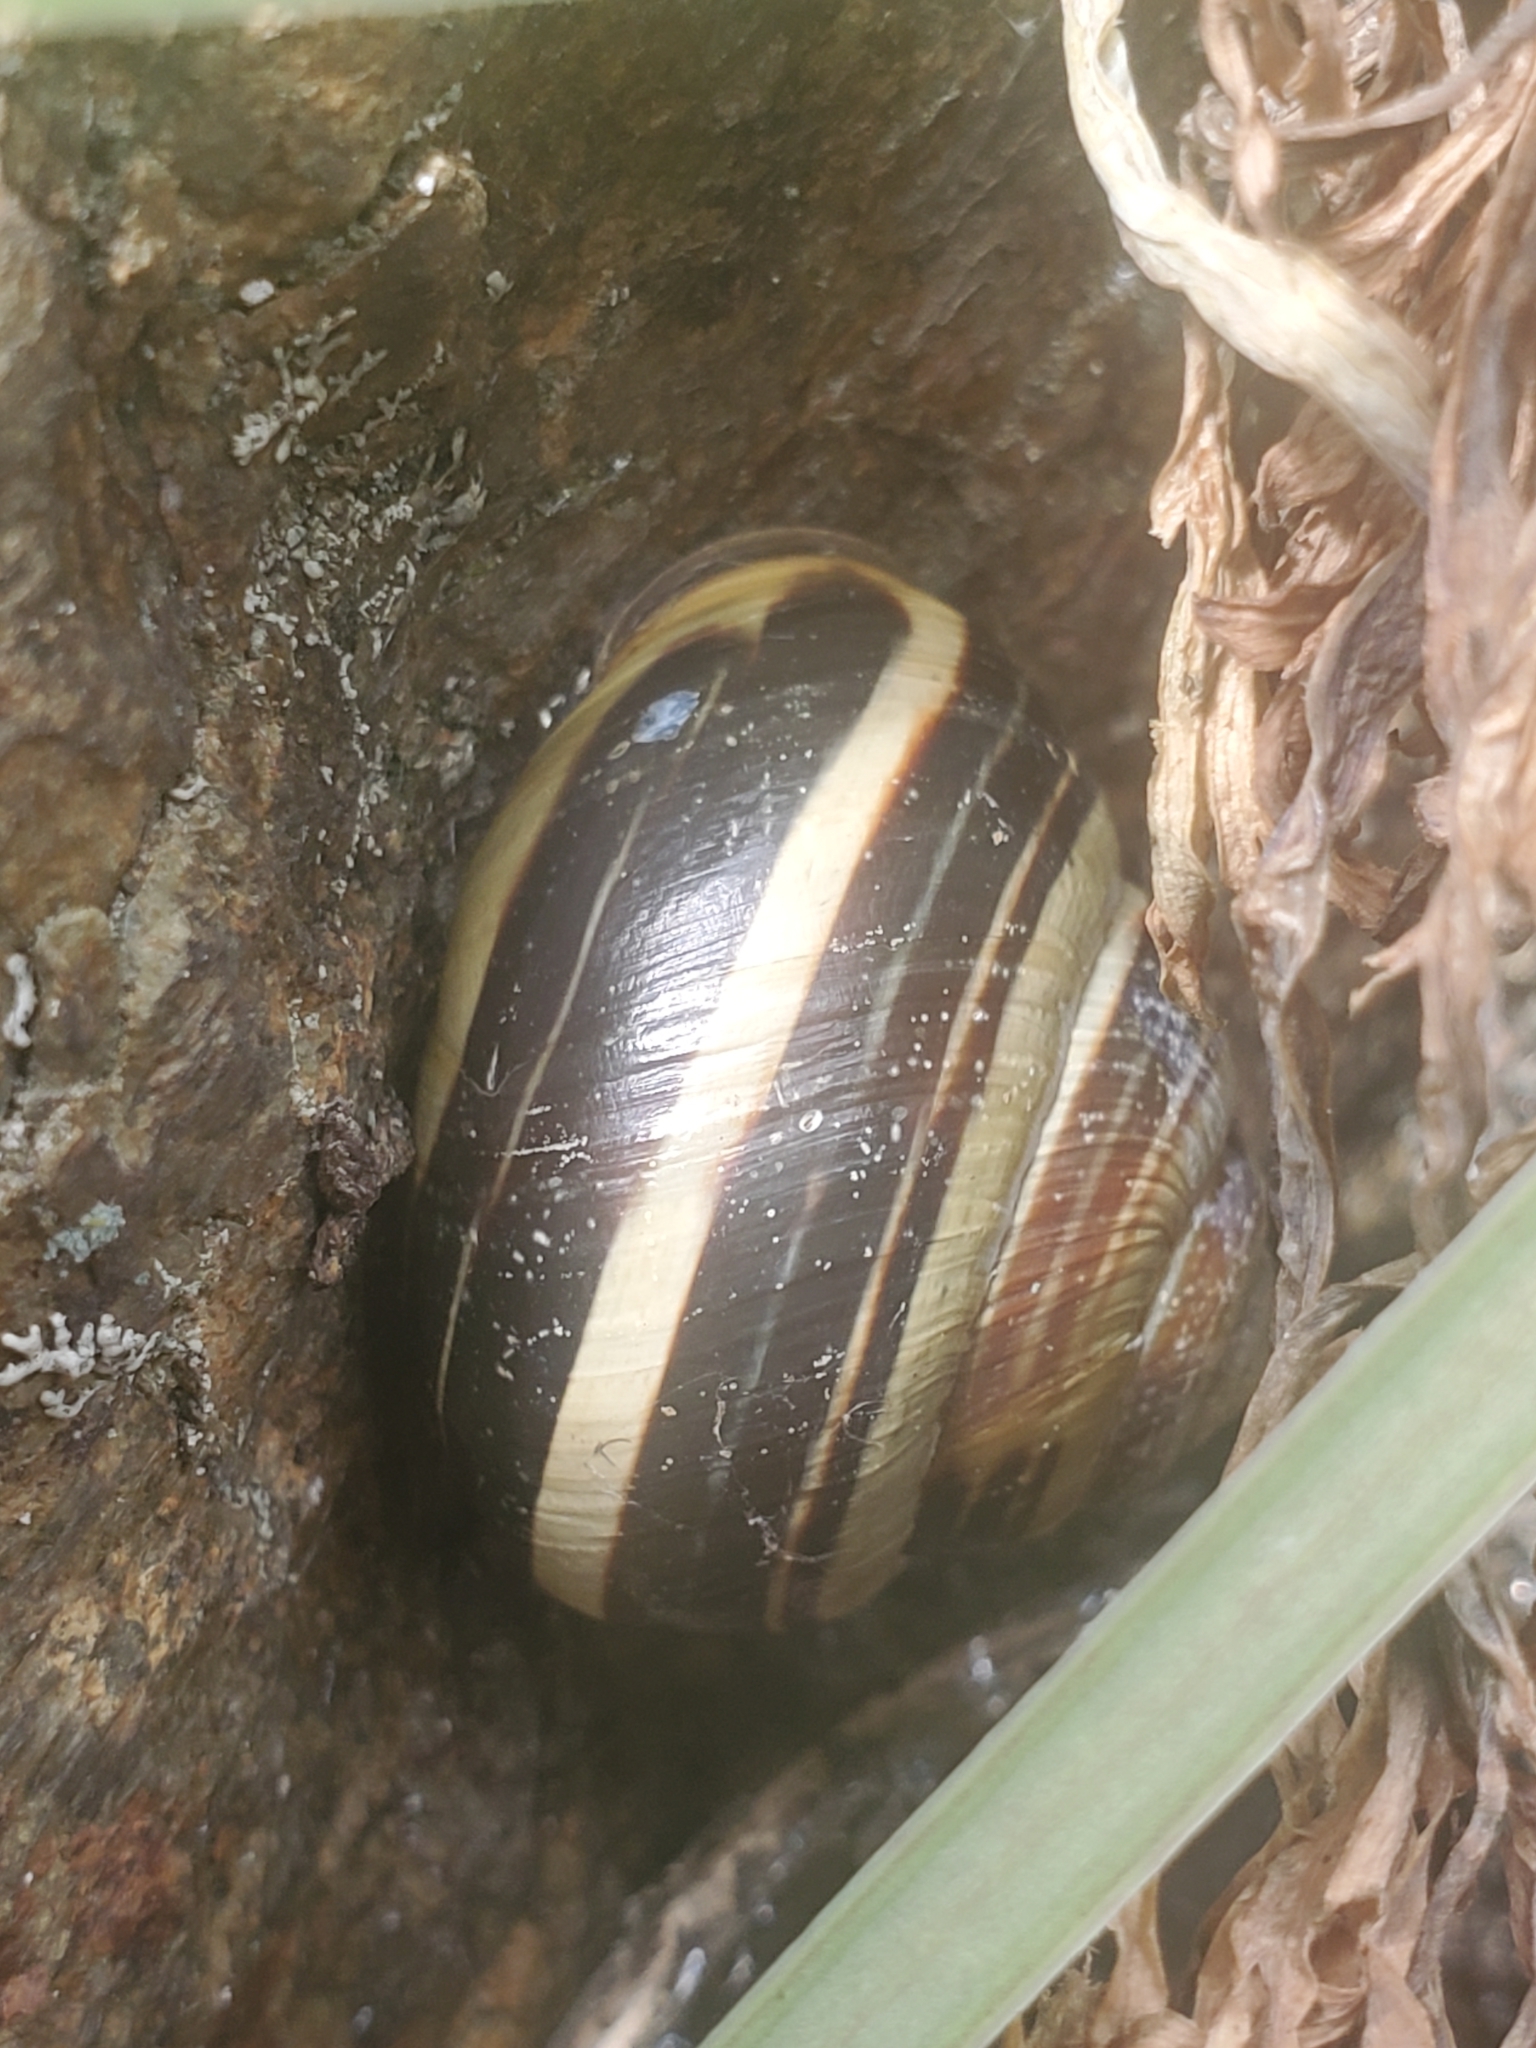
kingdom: Animalia
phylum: Mollusca
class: Gastropoda
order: Stylommatophora
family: Helicidae
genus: Cepaea
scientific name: Cepaea nemoralis
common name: Grovesnail
